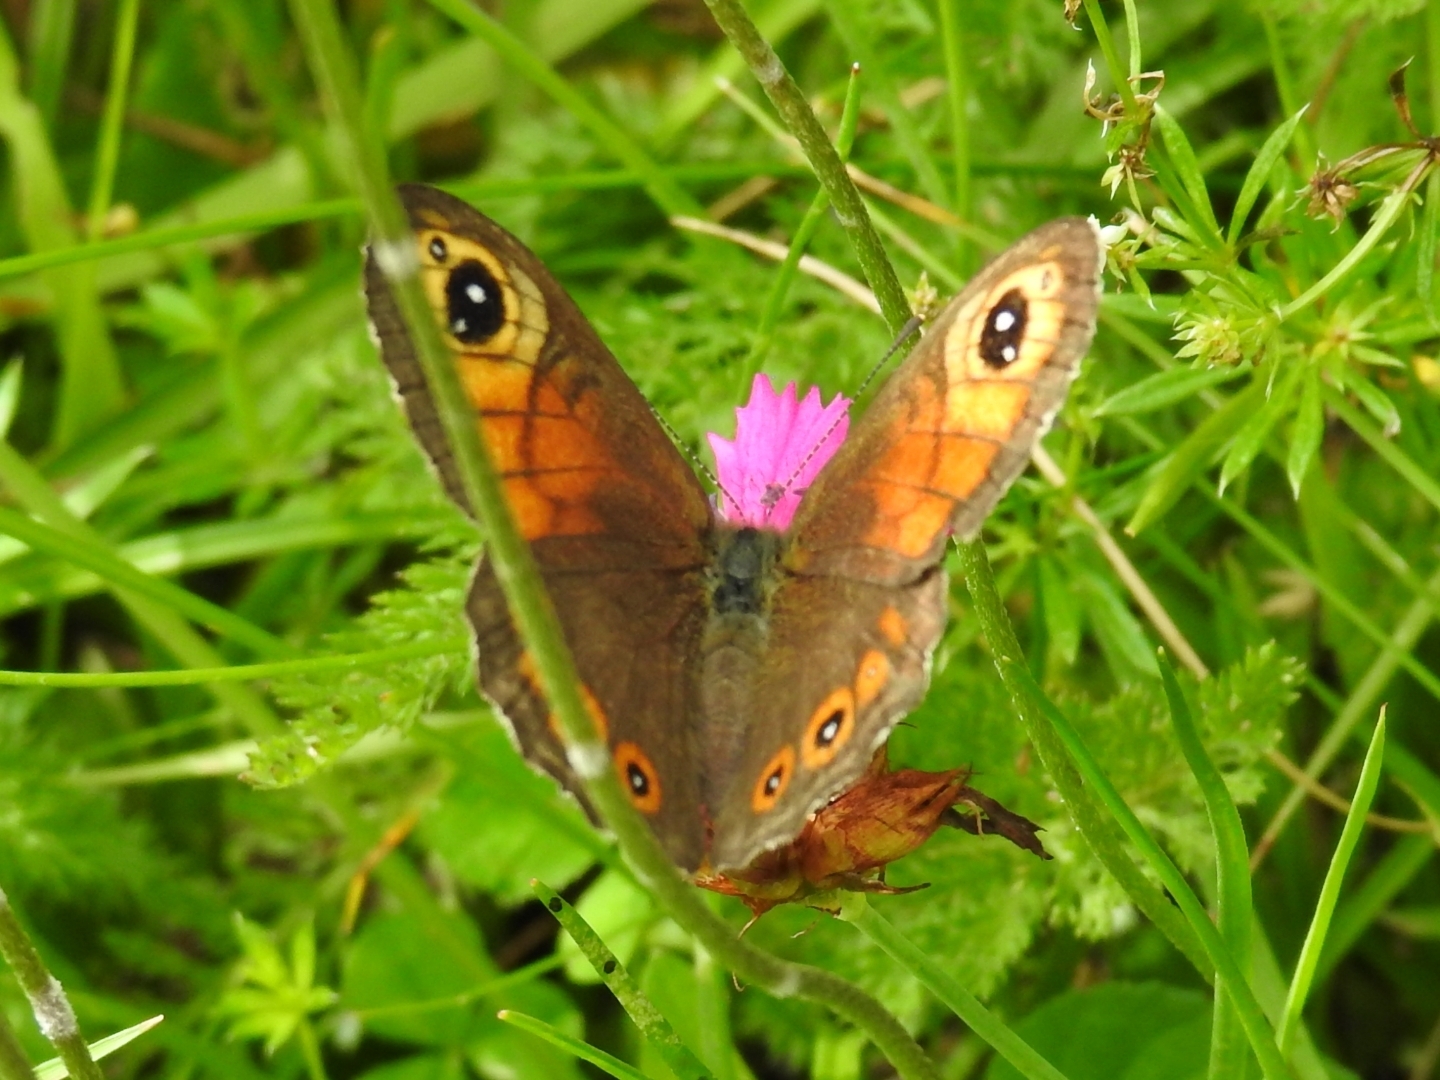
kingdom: Animalia
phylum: Arthropoda
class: Insecta
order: Lepidoptera
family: Nymphalidae
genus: Pararge
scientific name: Pararge Lasiommata maera
